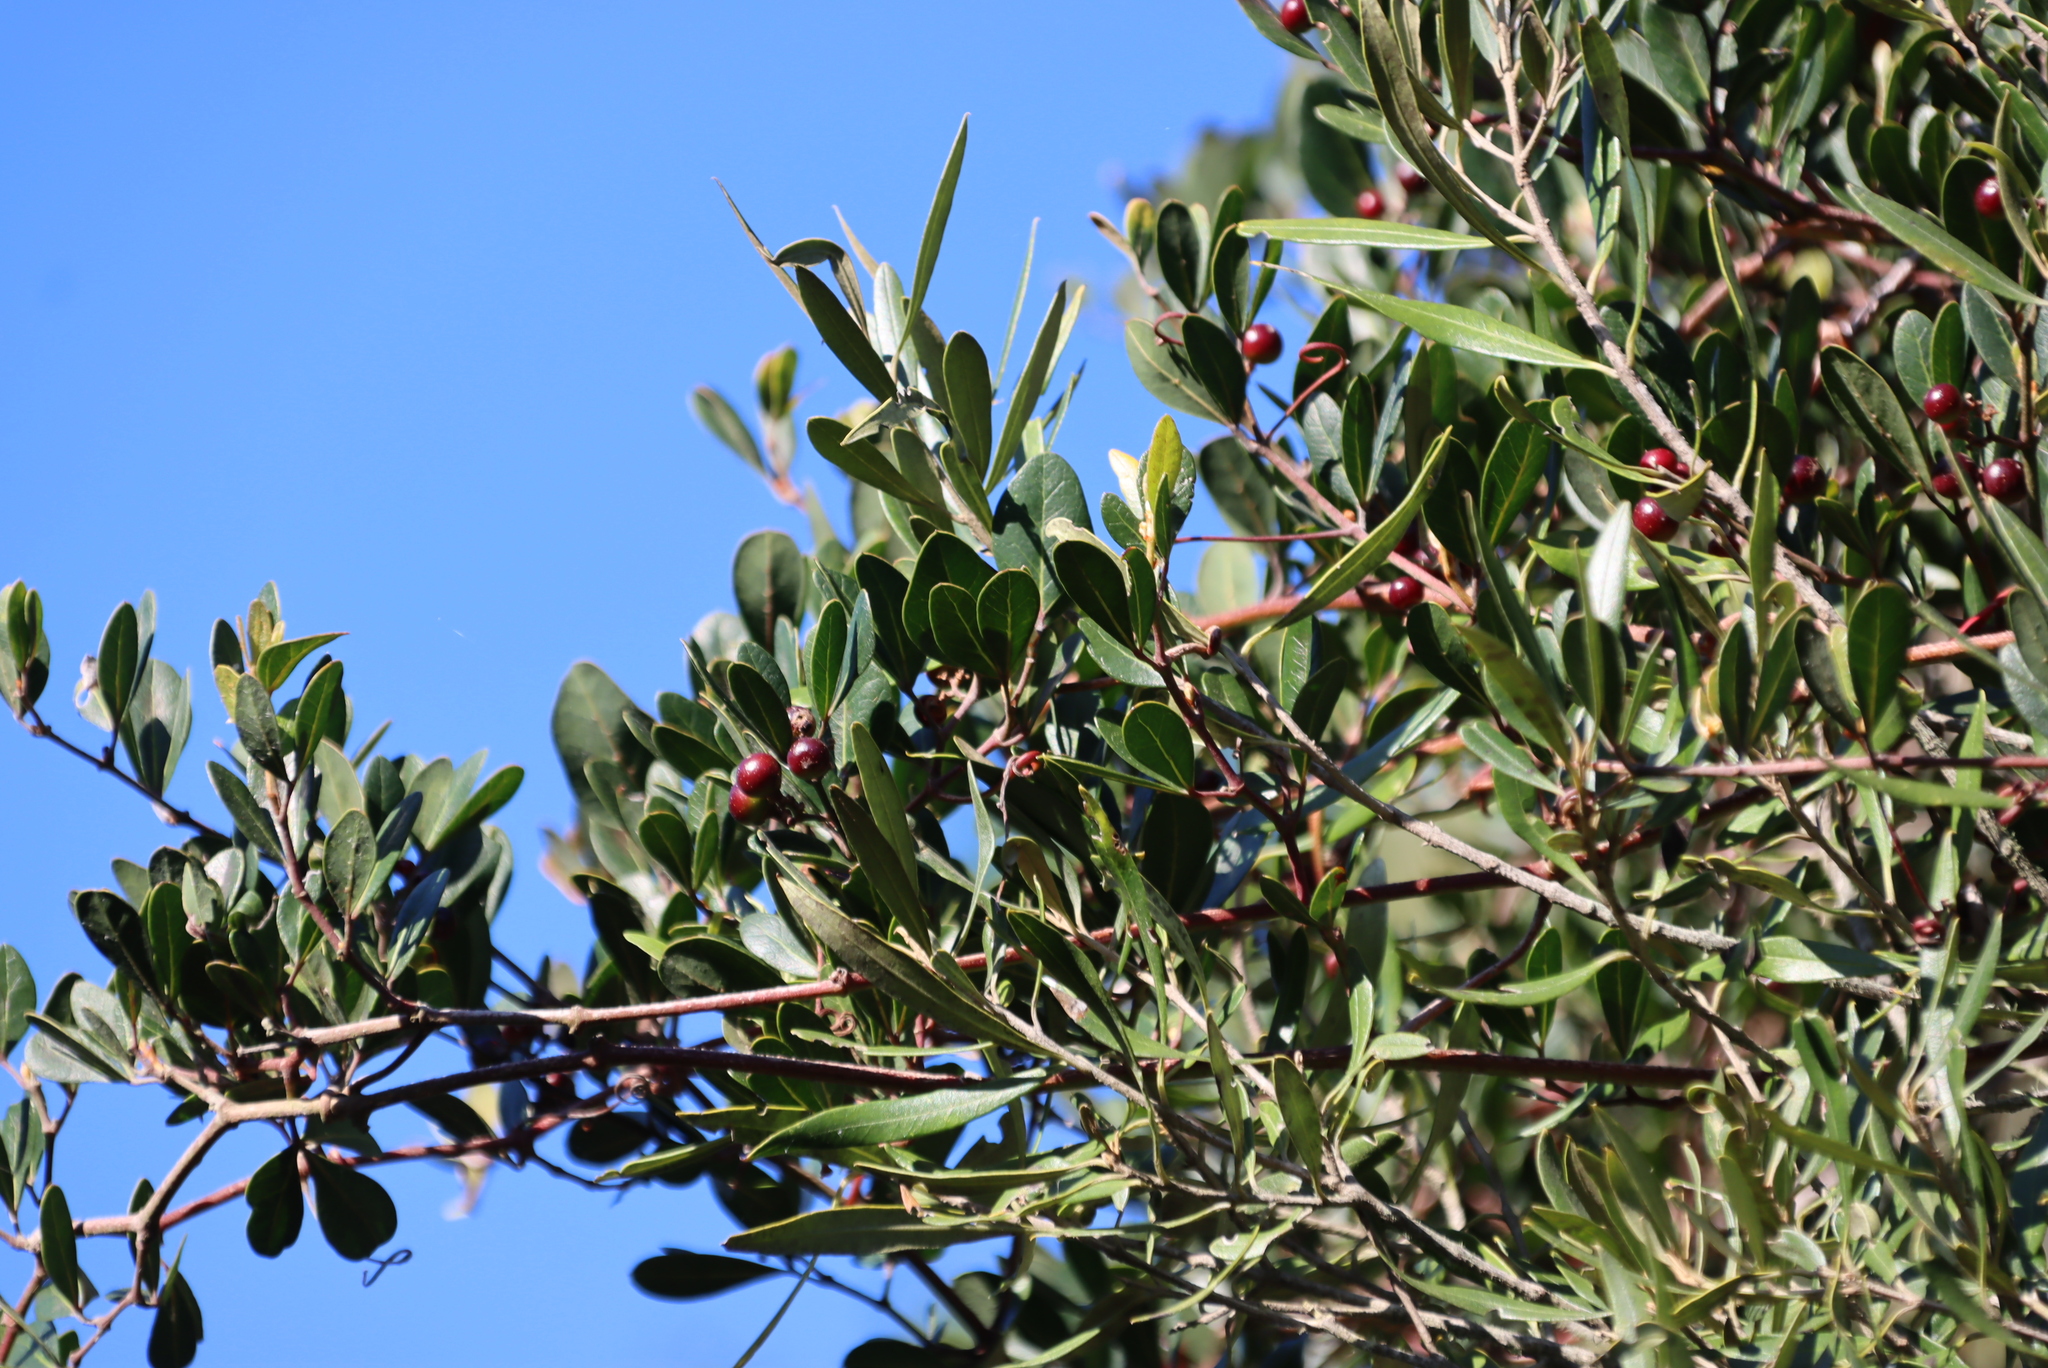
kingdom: Plantae
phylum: Tracheophyta
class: Magnoliopsida
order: Vitales
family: Vitaceae
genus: Rhoicissus
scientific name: Rhoicissus digitata
